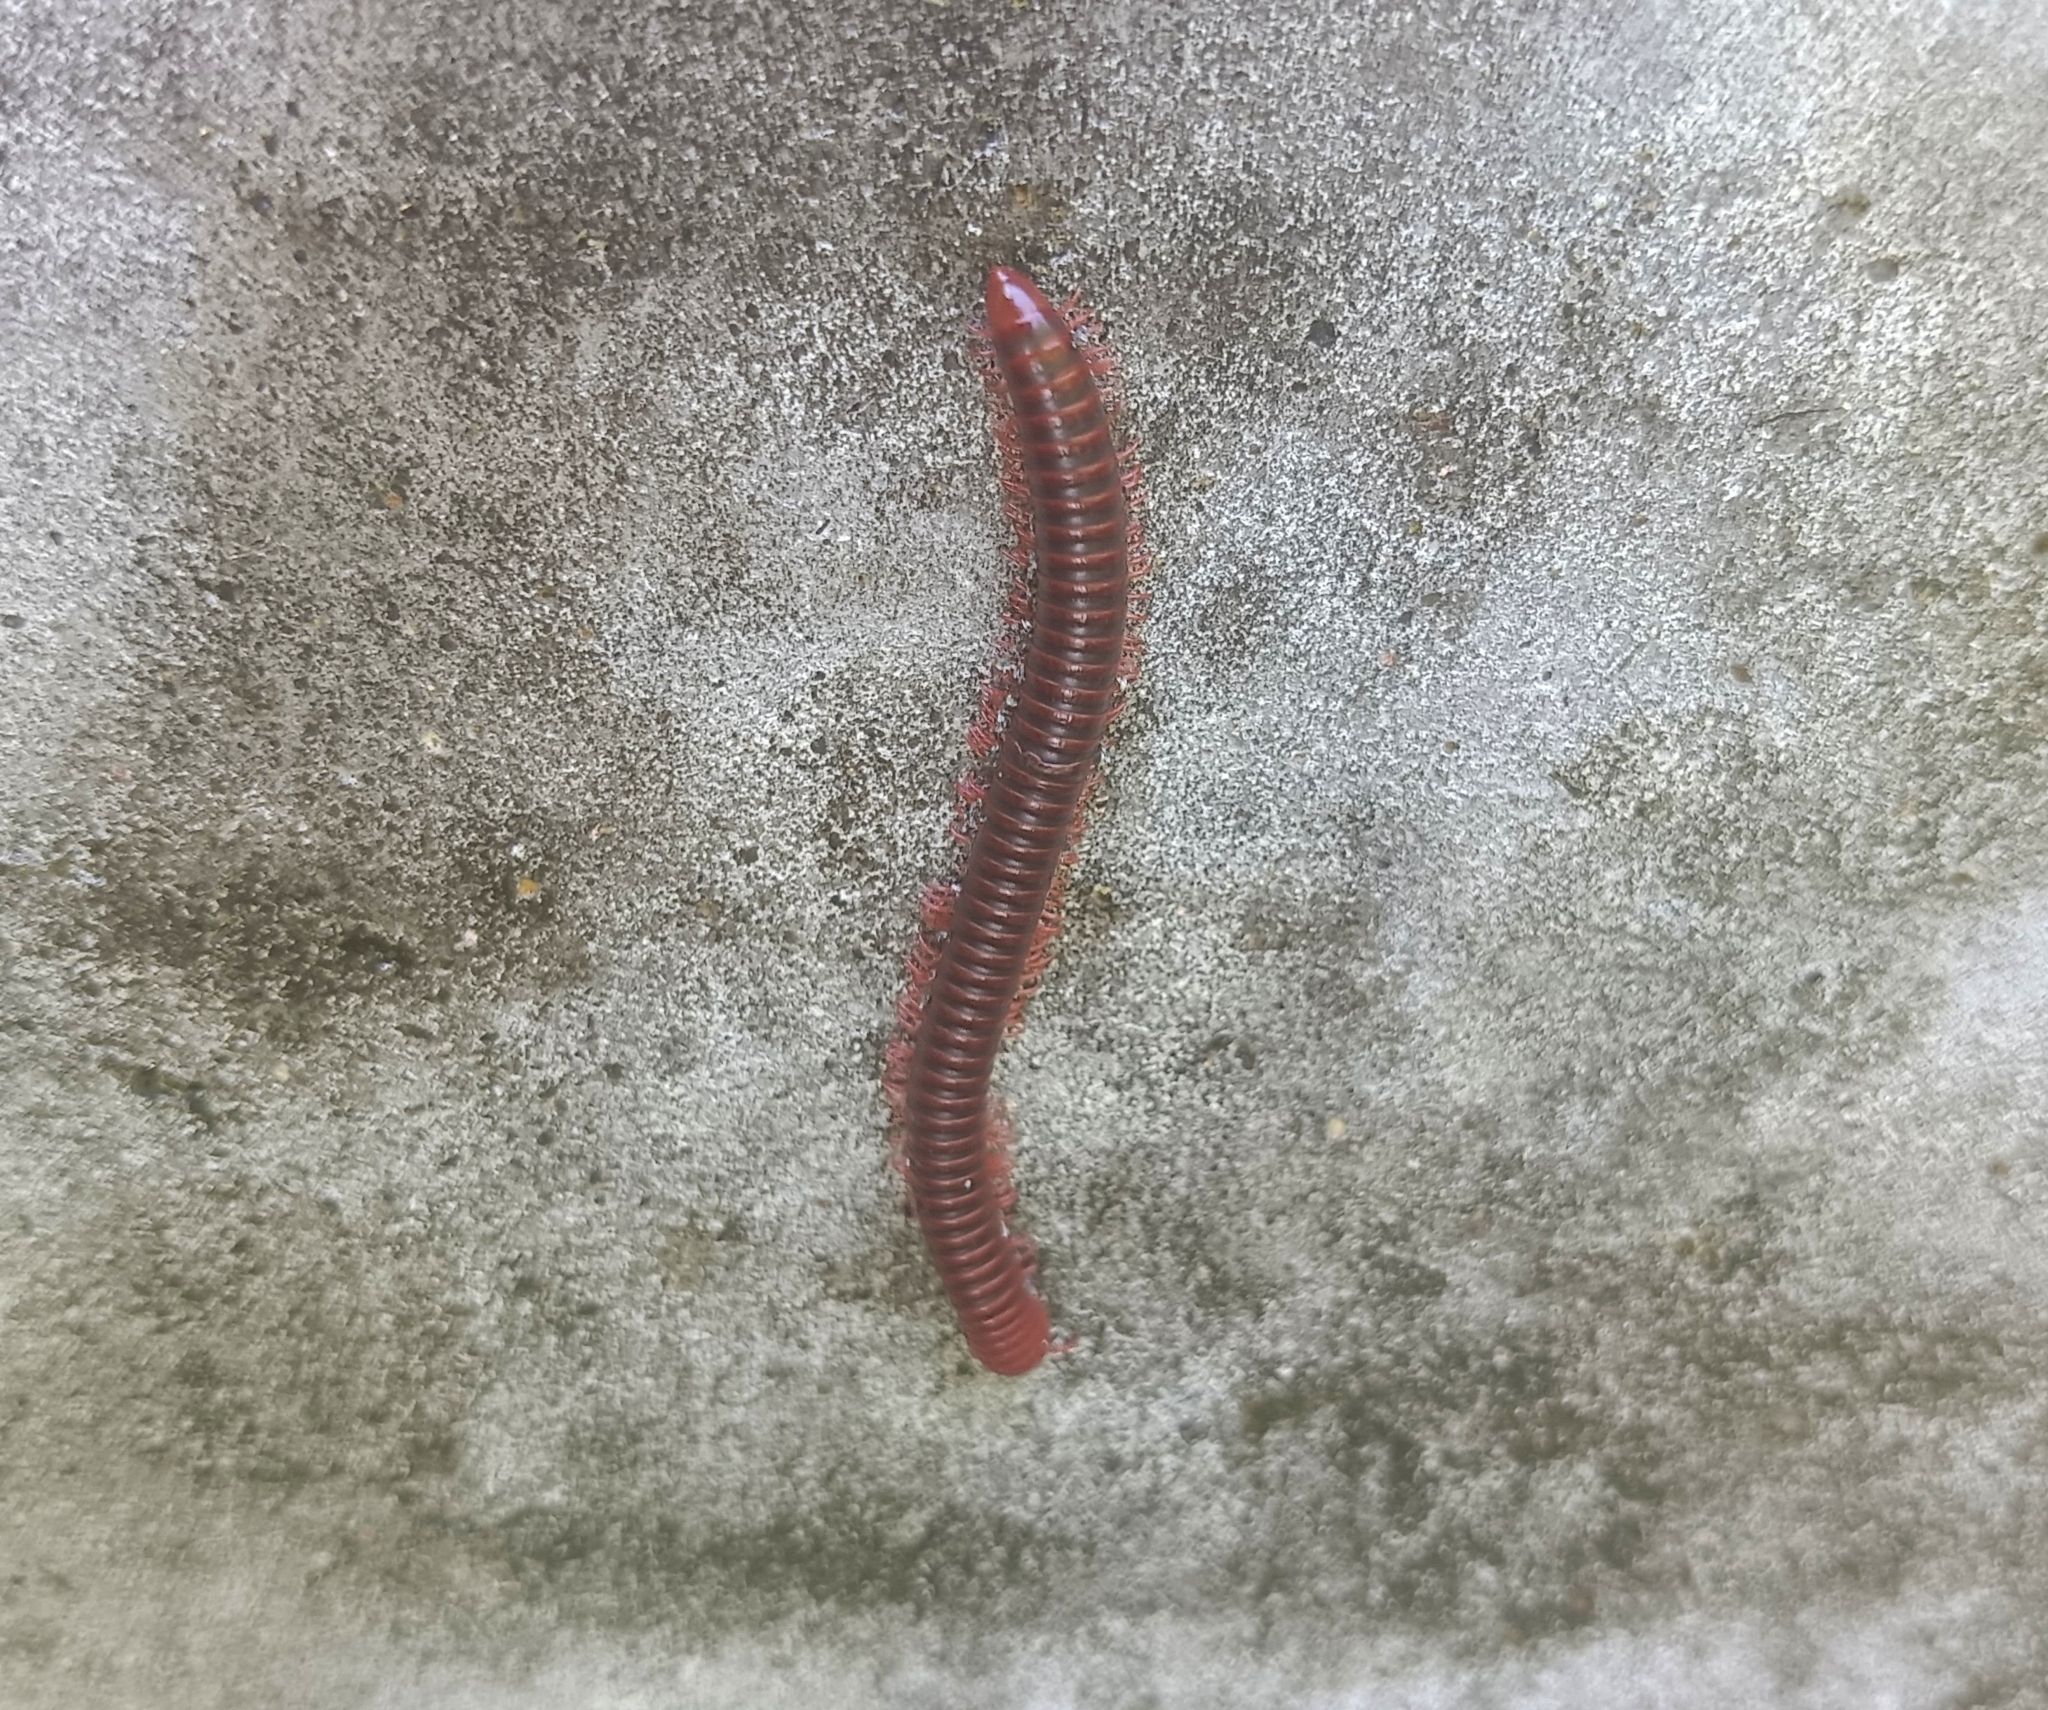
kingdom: Animalia
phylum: Arthropoda
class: Diplopoda
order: Spirobolida
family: Pachybolidae
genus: Trigoniulus
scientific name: Trigoniulus corallinus
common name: Millipede
